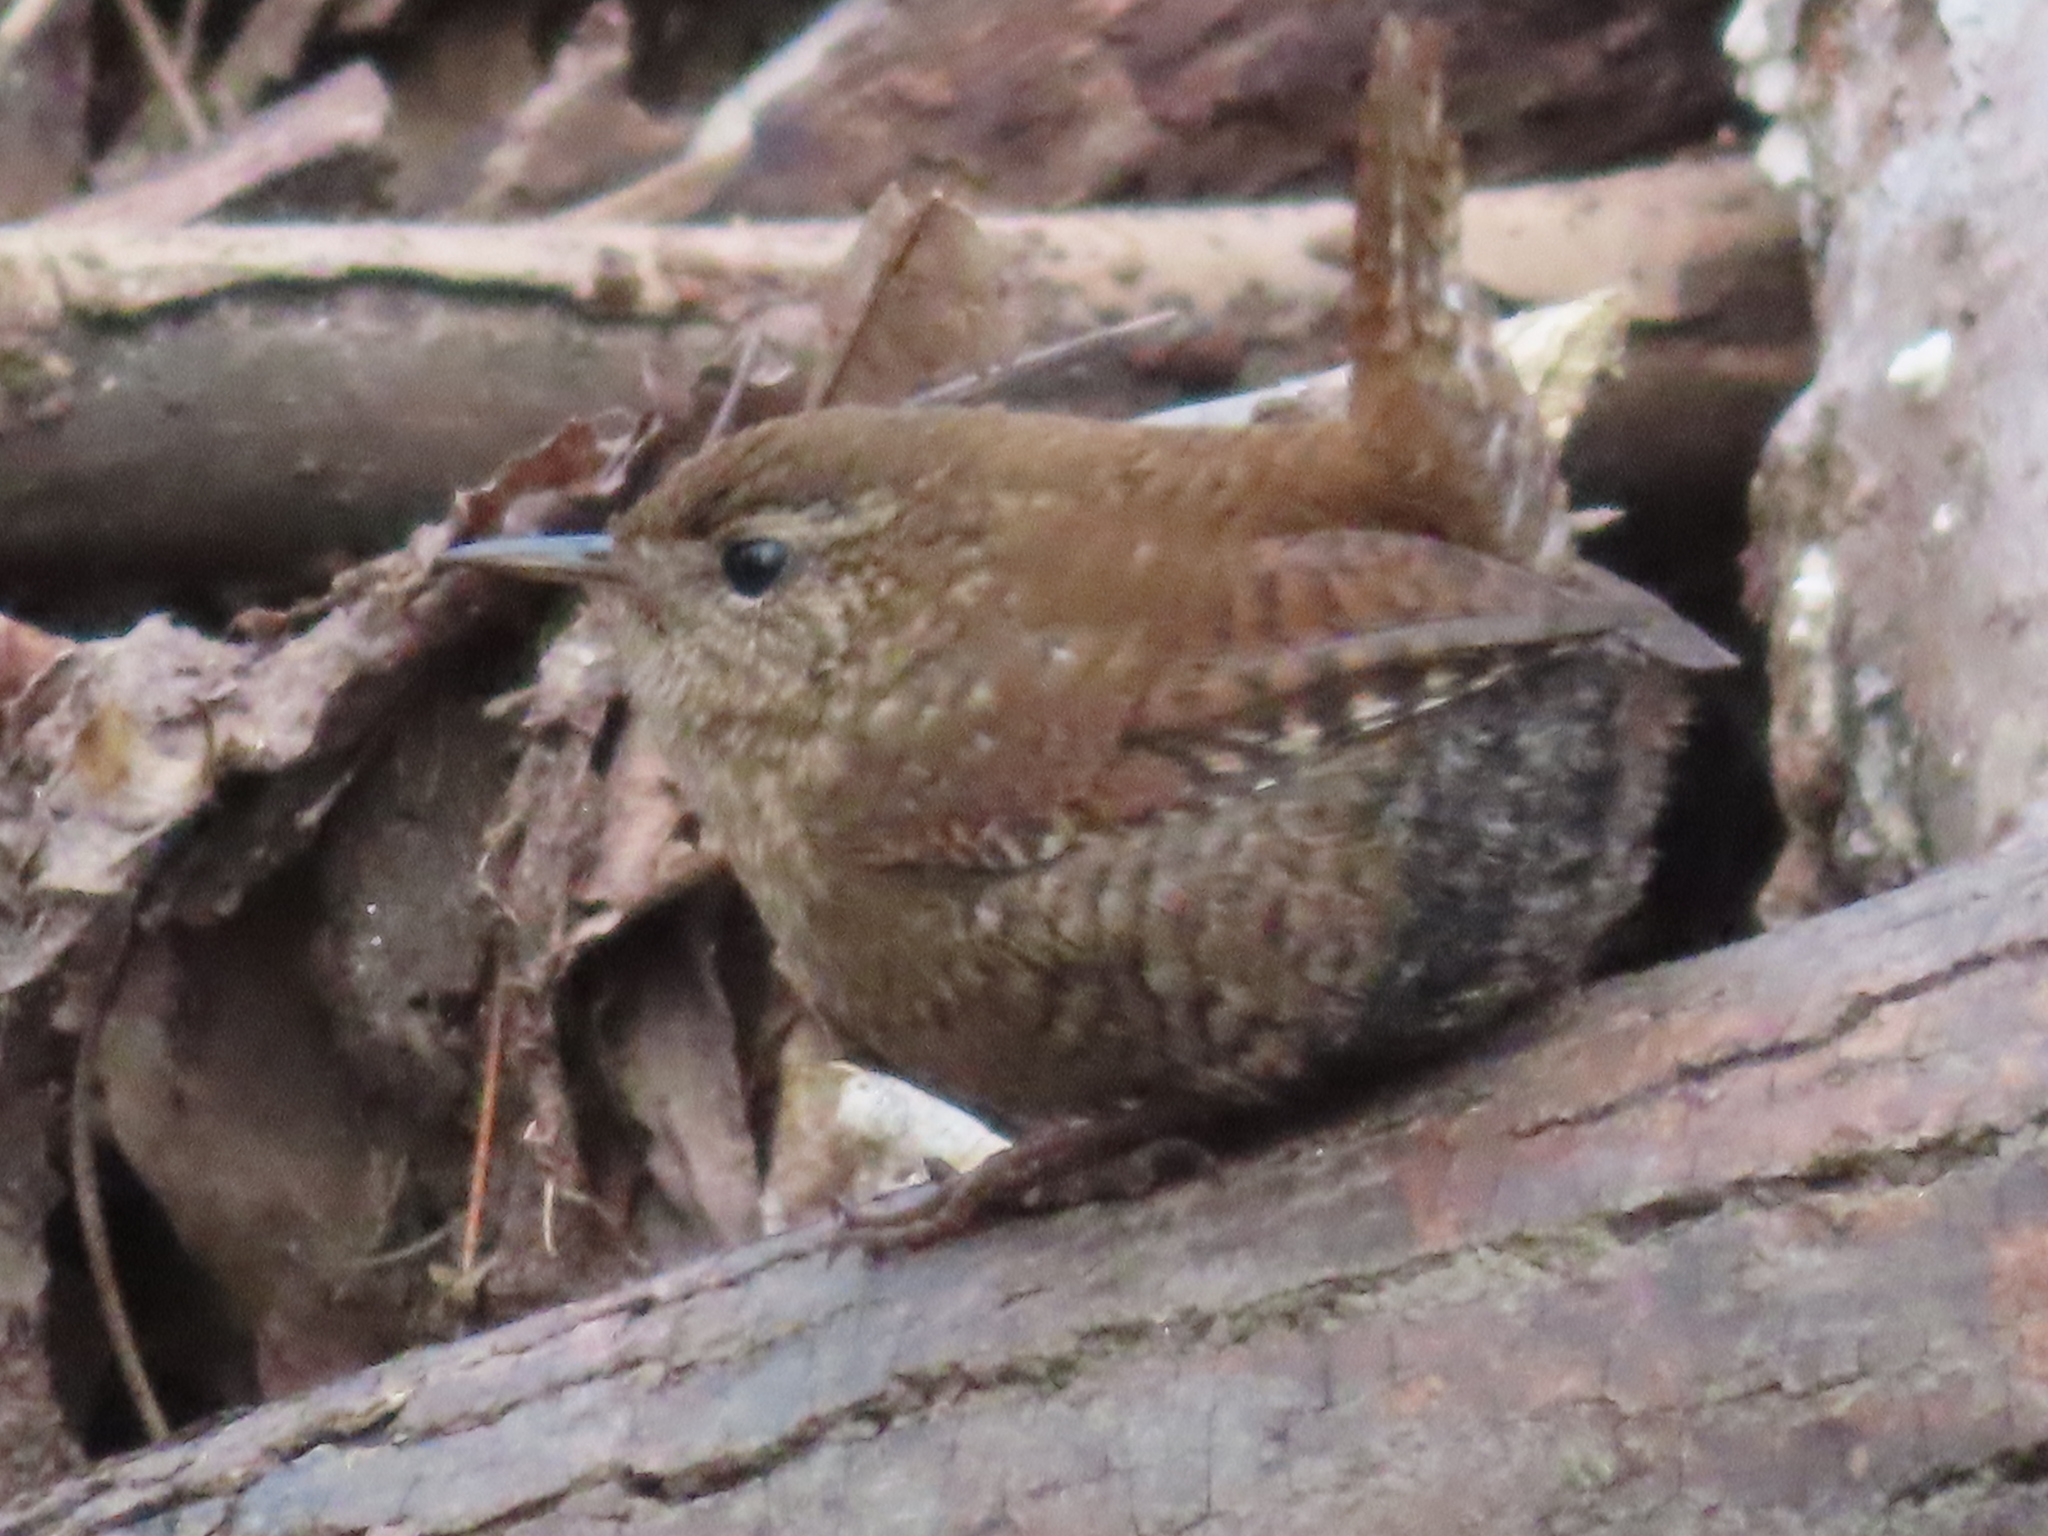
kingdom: Animalia
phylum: Chordata
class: Aves
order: Passeriformes
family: Troglodytidae
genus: Troglodytes
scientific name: Troglodytes hiemalis
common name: Winter wren
